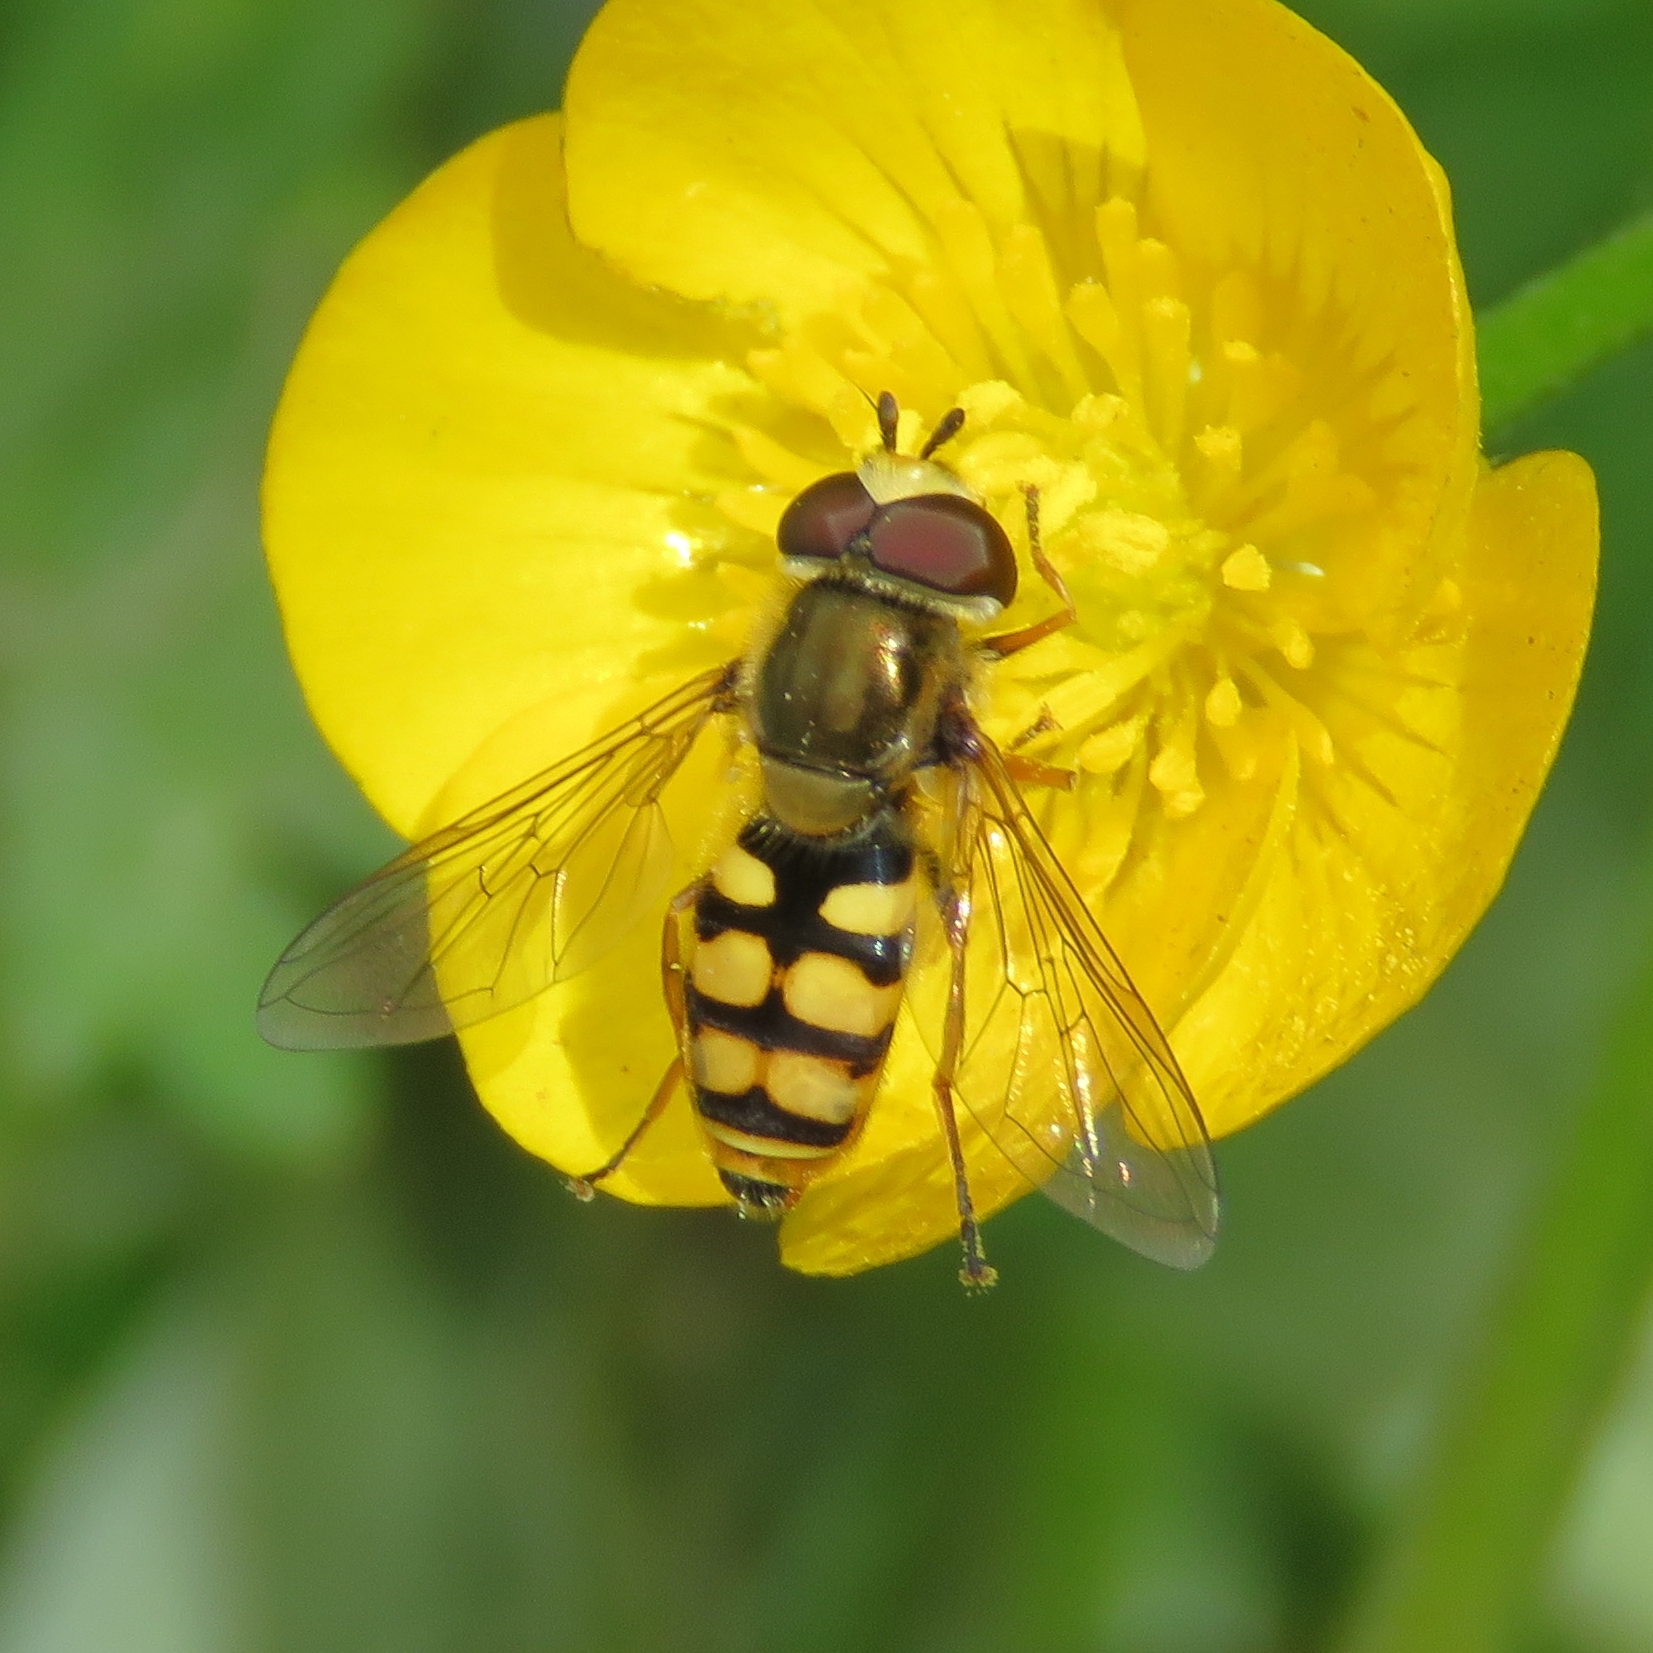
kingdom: Animalia
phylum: Arthropoda
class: Insecta
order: Diptera
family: Syrphidae
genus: Eupeodes
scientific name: Eupeodes corollae
